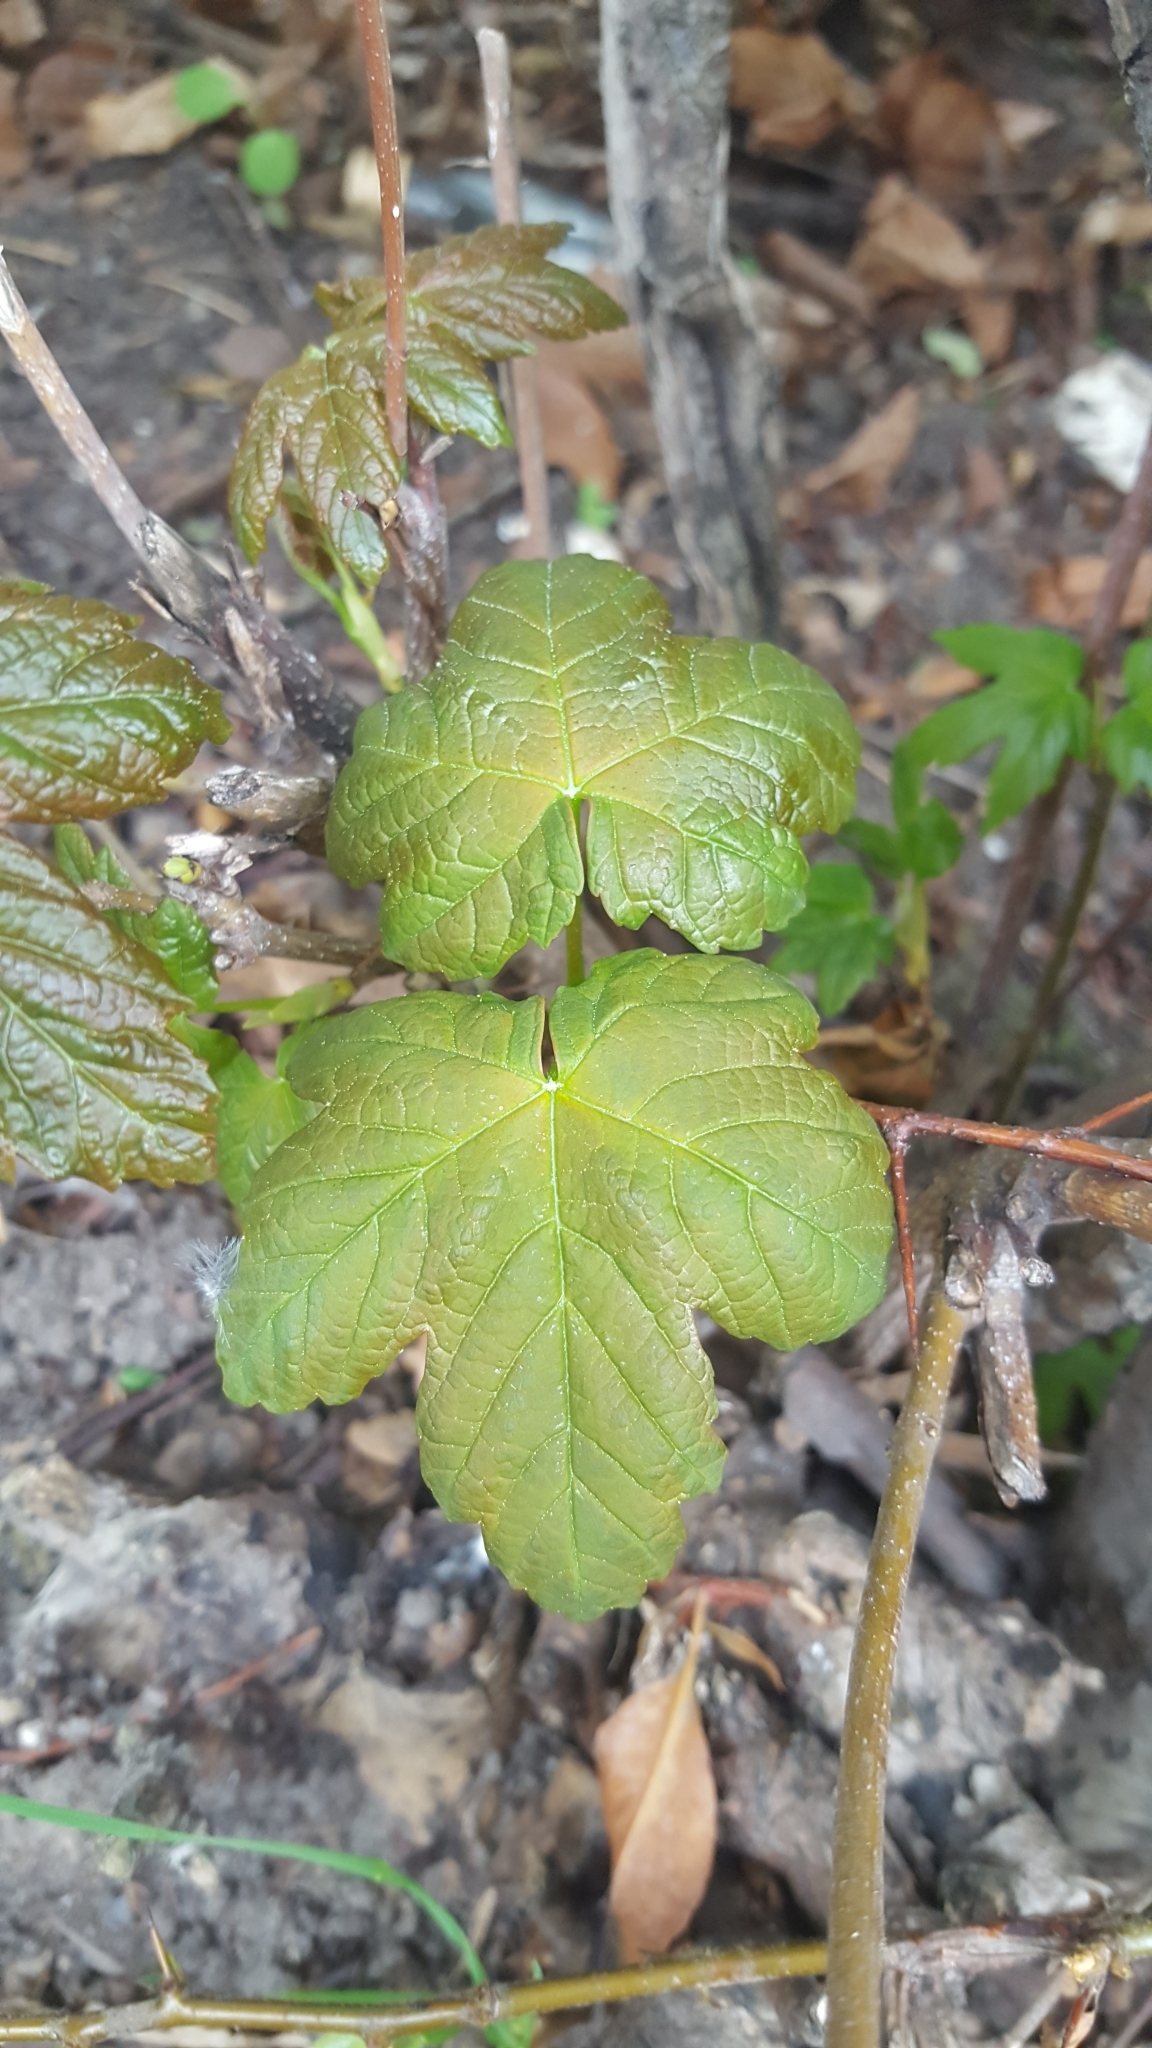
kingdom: Plantae
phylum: Tracheophyta
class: Magnoliopsida
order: Sapindales
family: Sapindaceae
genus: Acer
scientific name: Acer pseudoplatanus
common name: Sycamore
